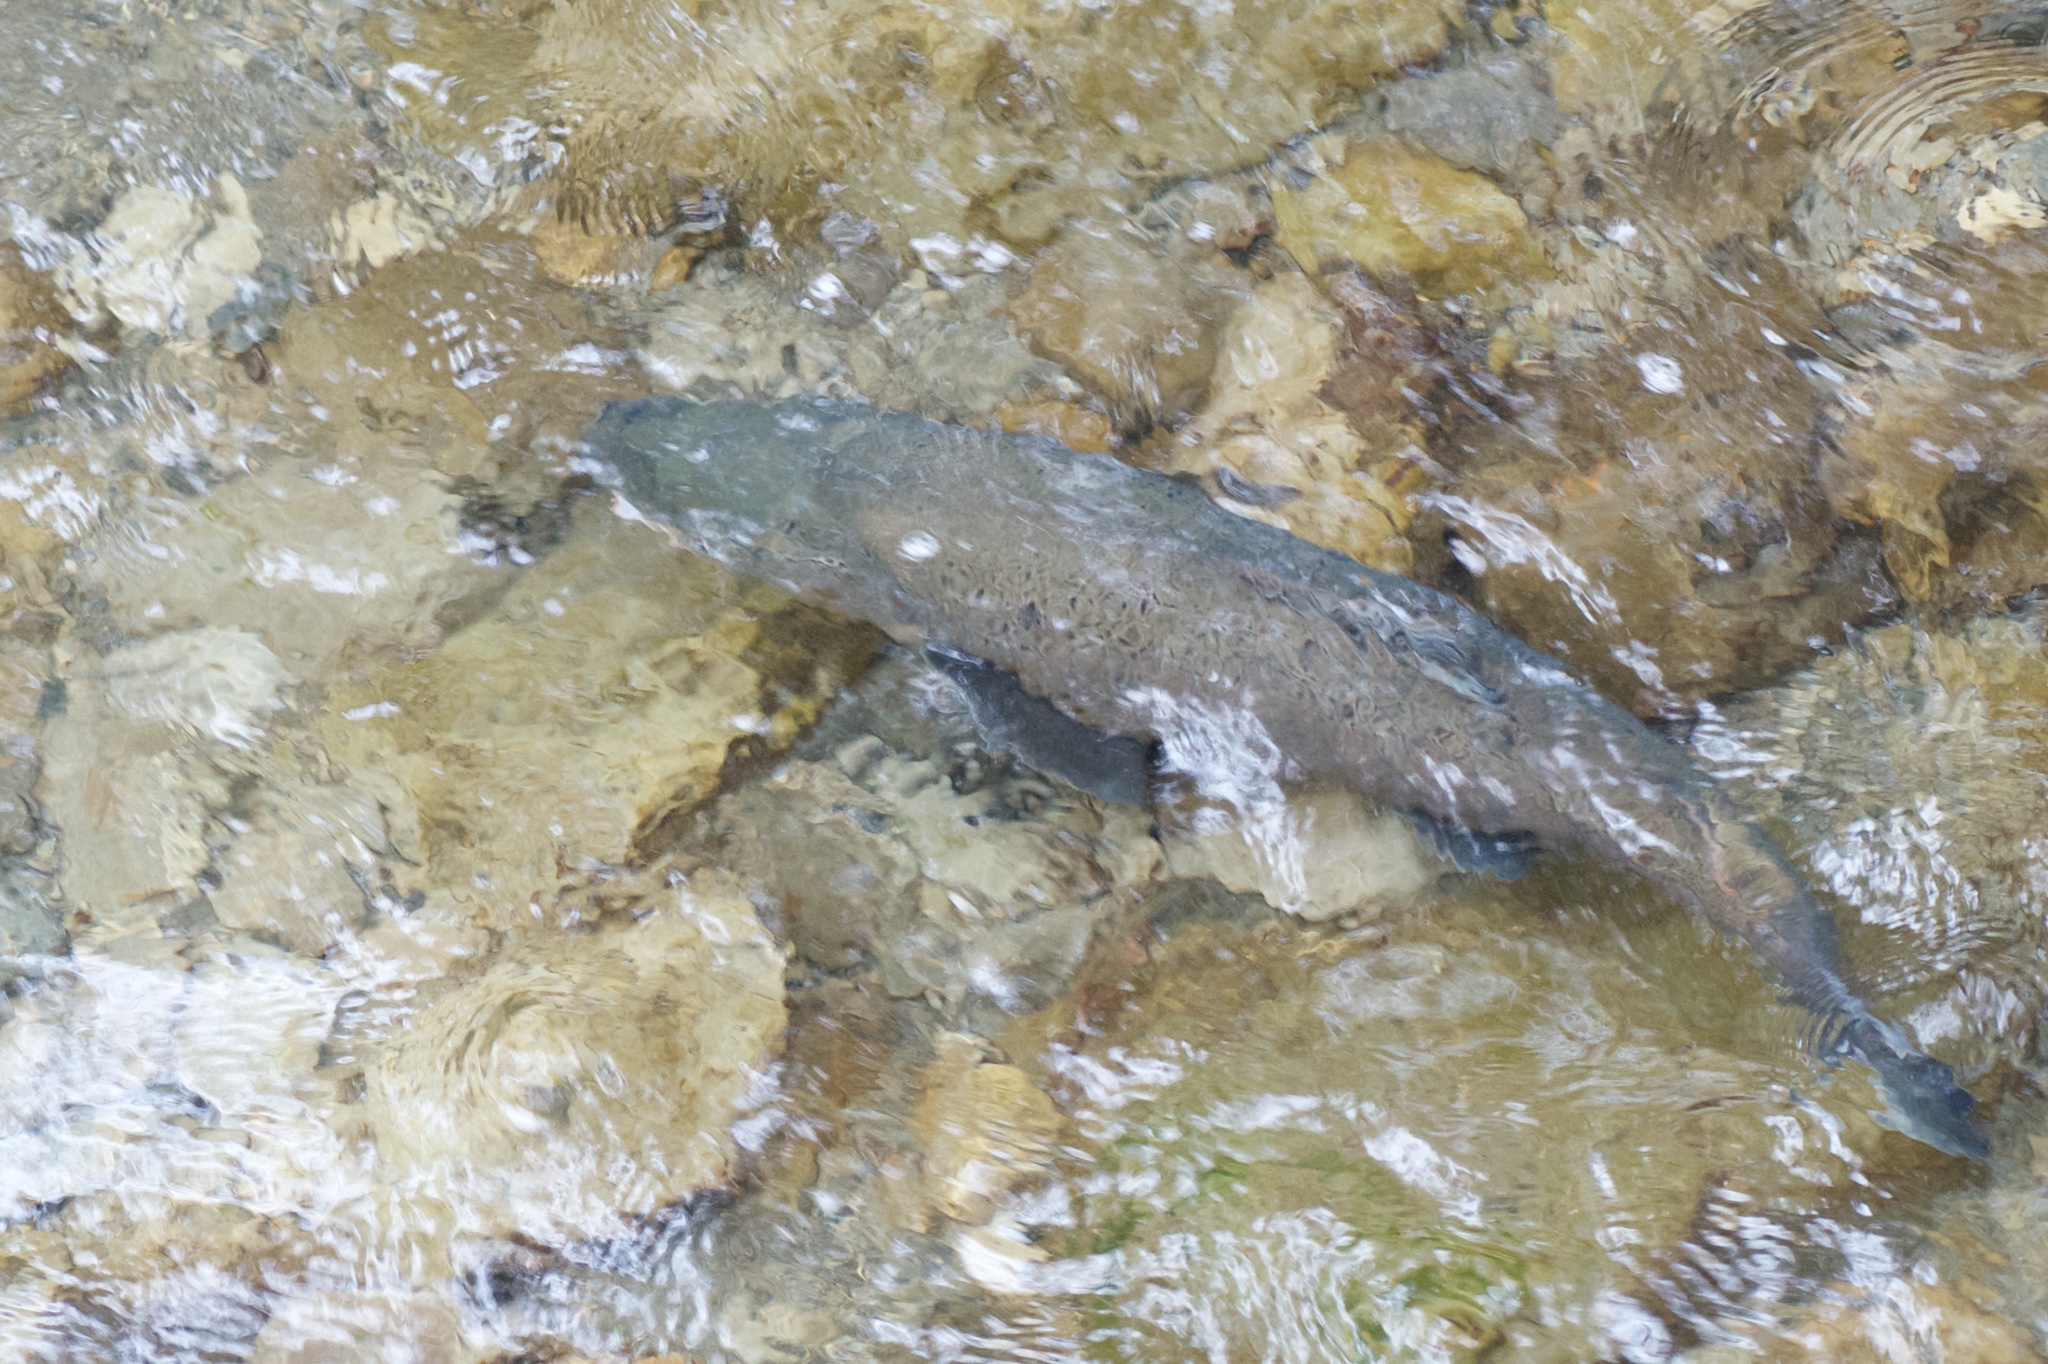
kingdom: Animalia
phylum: Chordata
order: Salmoniformes
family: Salmonidae
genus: Salmo
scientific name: Salmo trutta
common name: Brown trout
